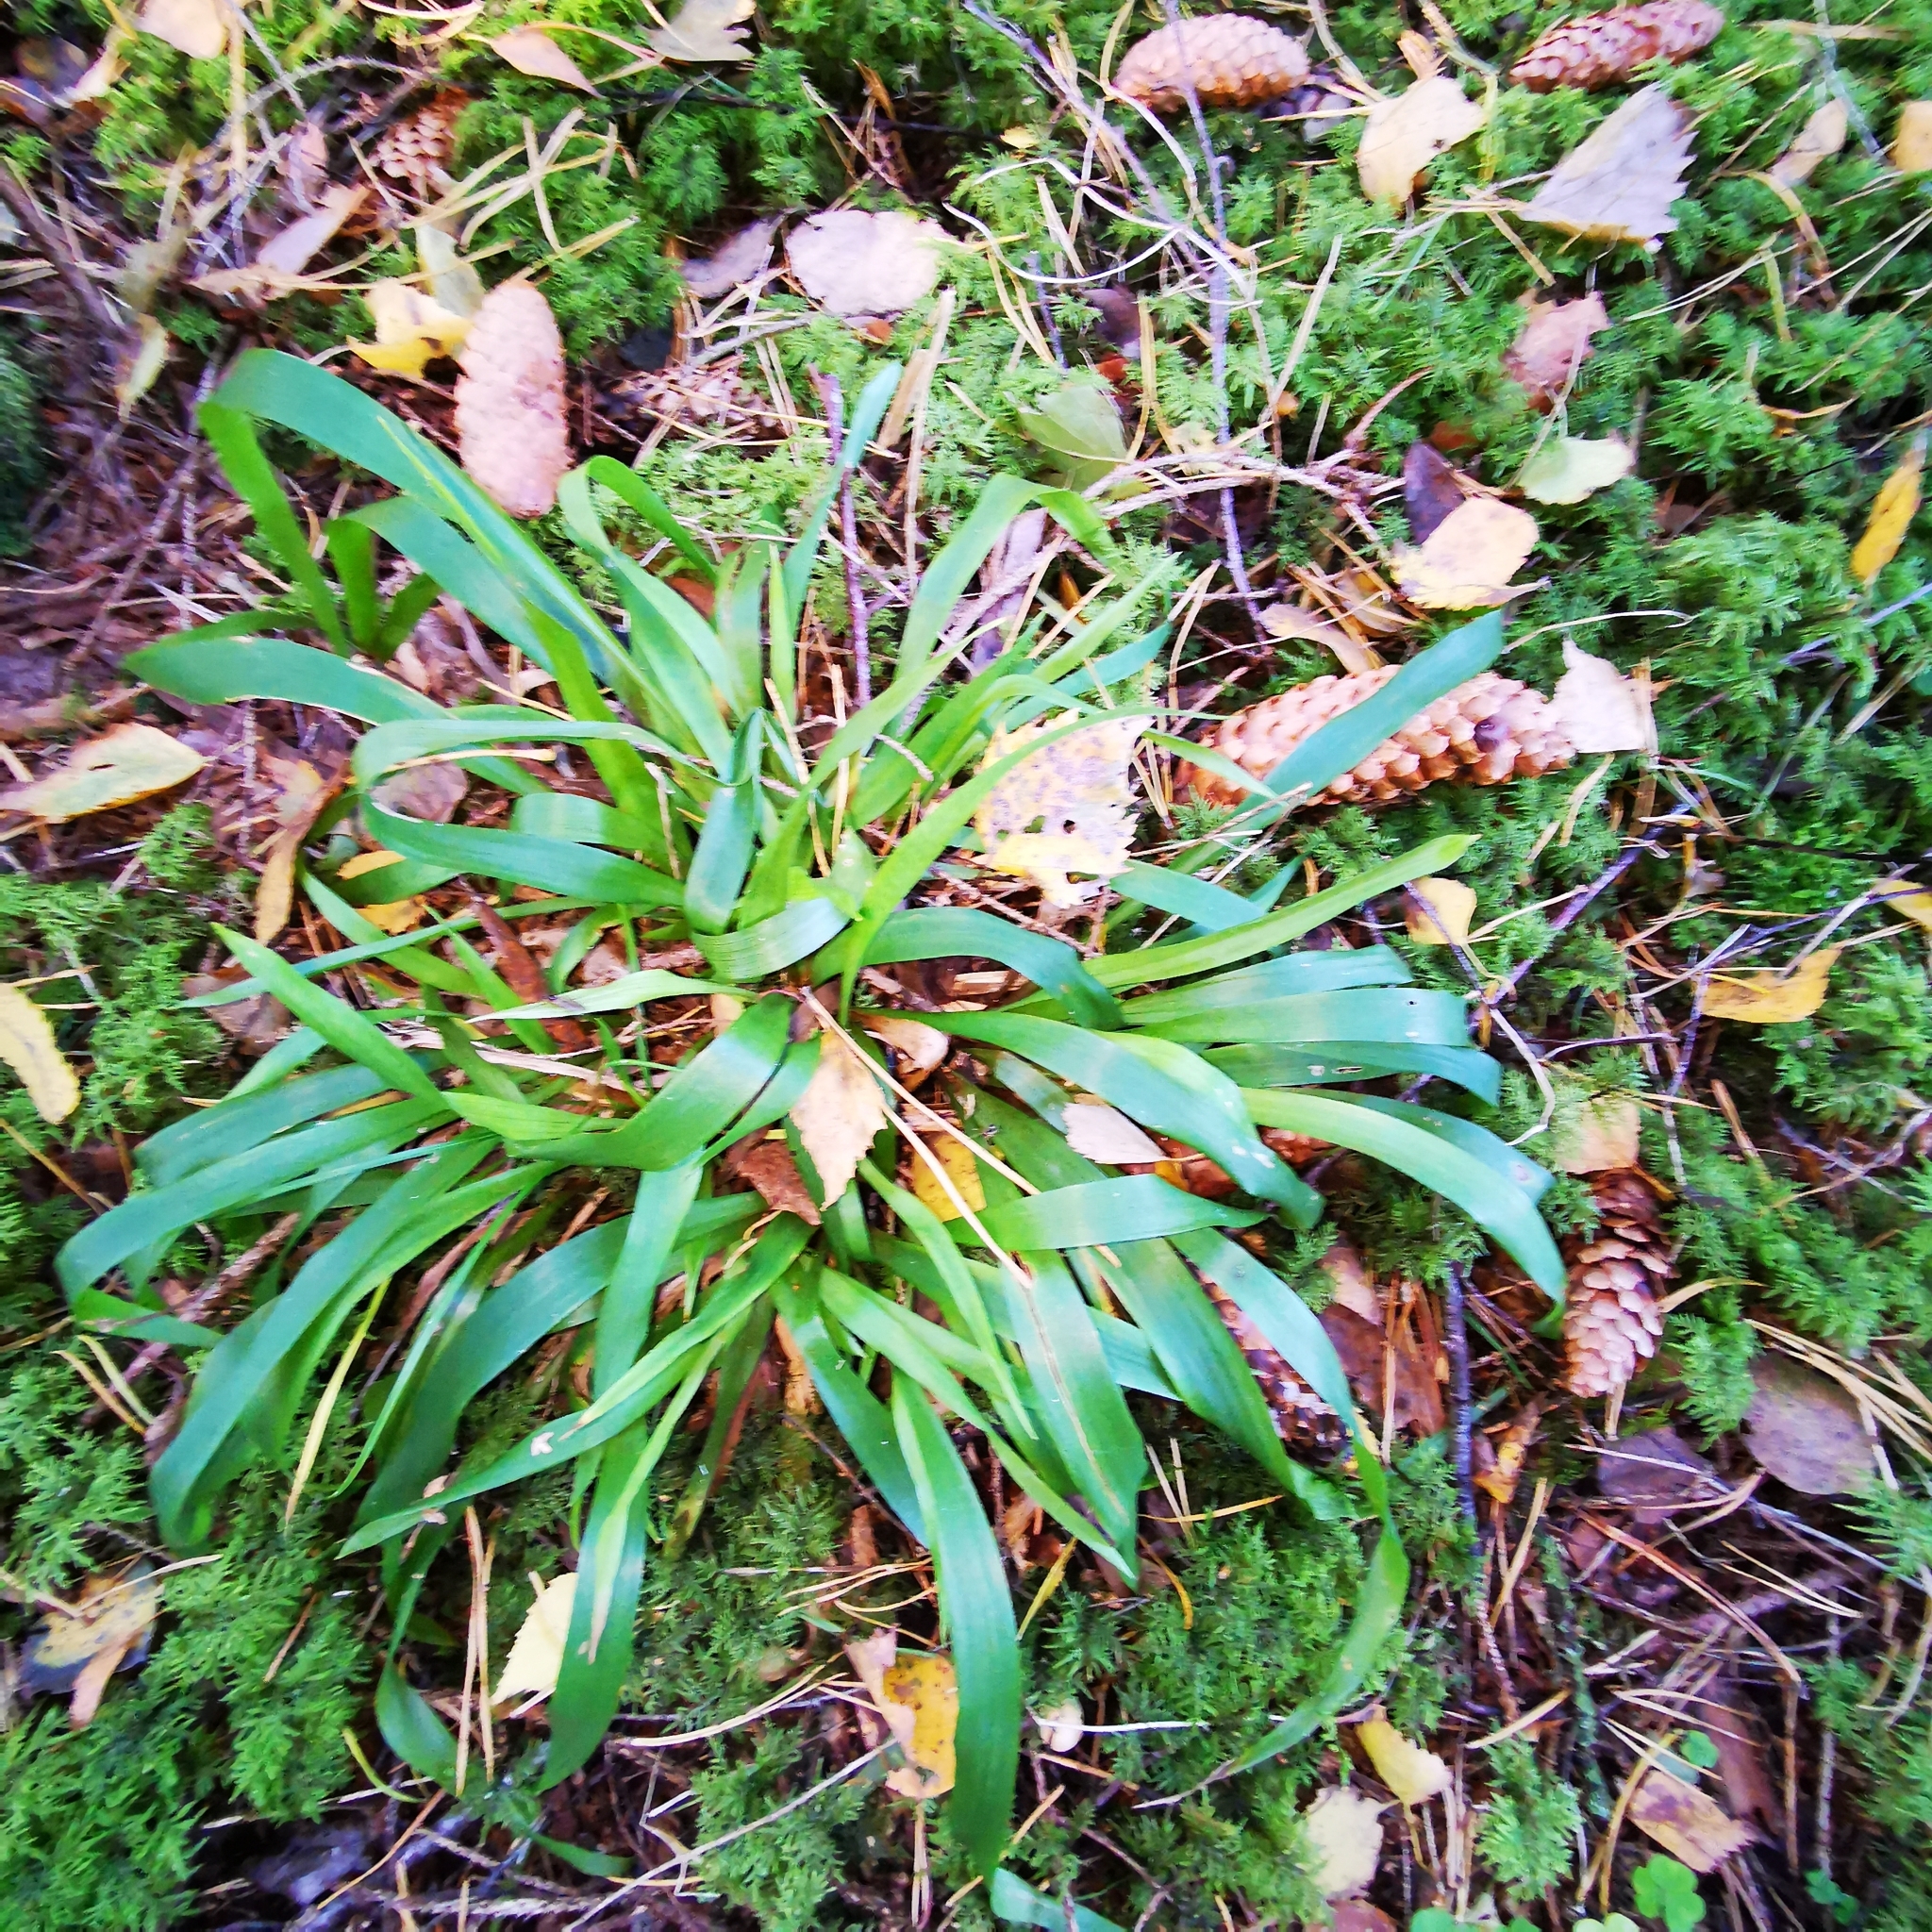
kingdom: Plantae
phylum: Tracheophyta
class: Liliopsida
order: Poales
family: Juncaceae
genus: Luzula
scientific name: Luzula pilosa
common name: Hairy wood-rush
